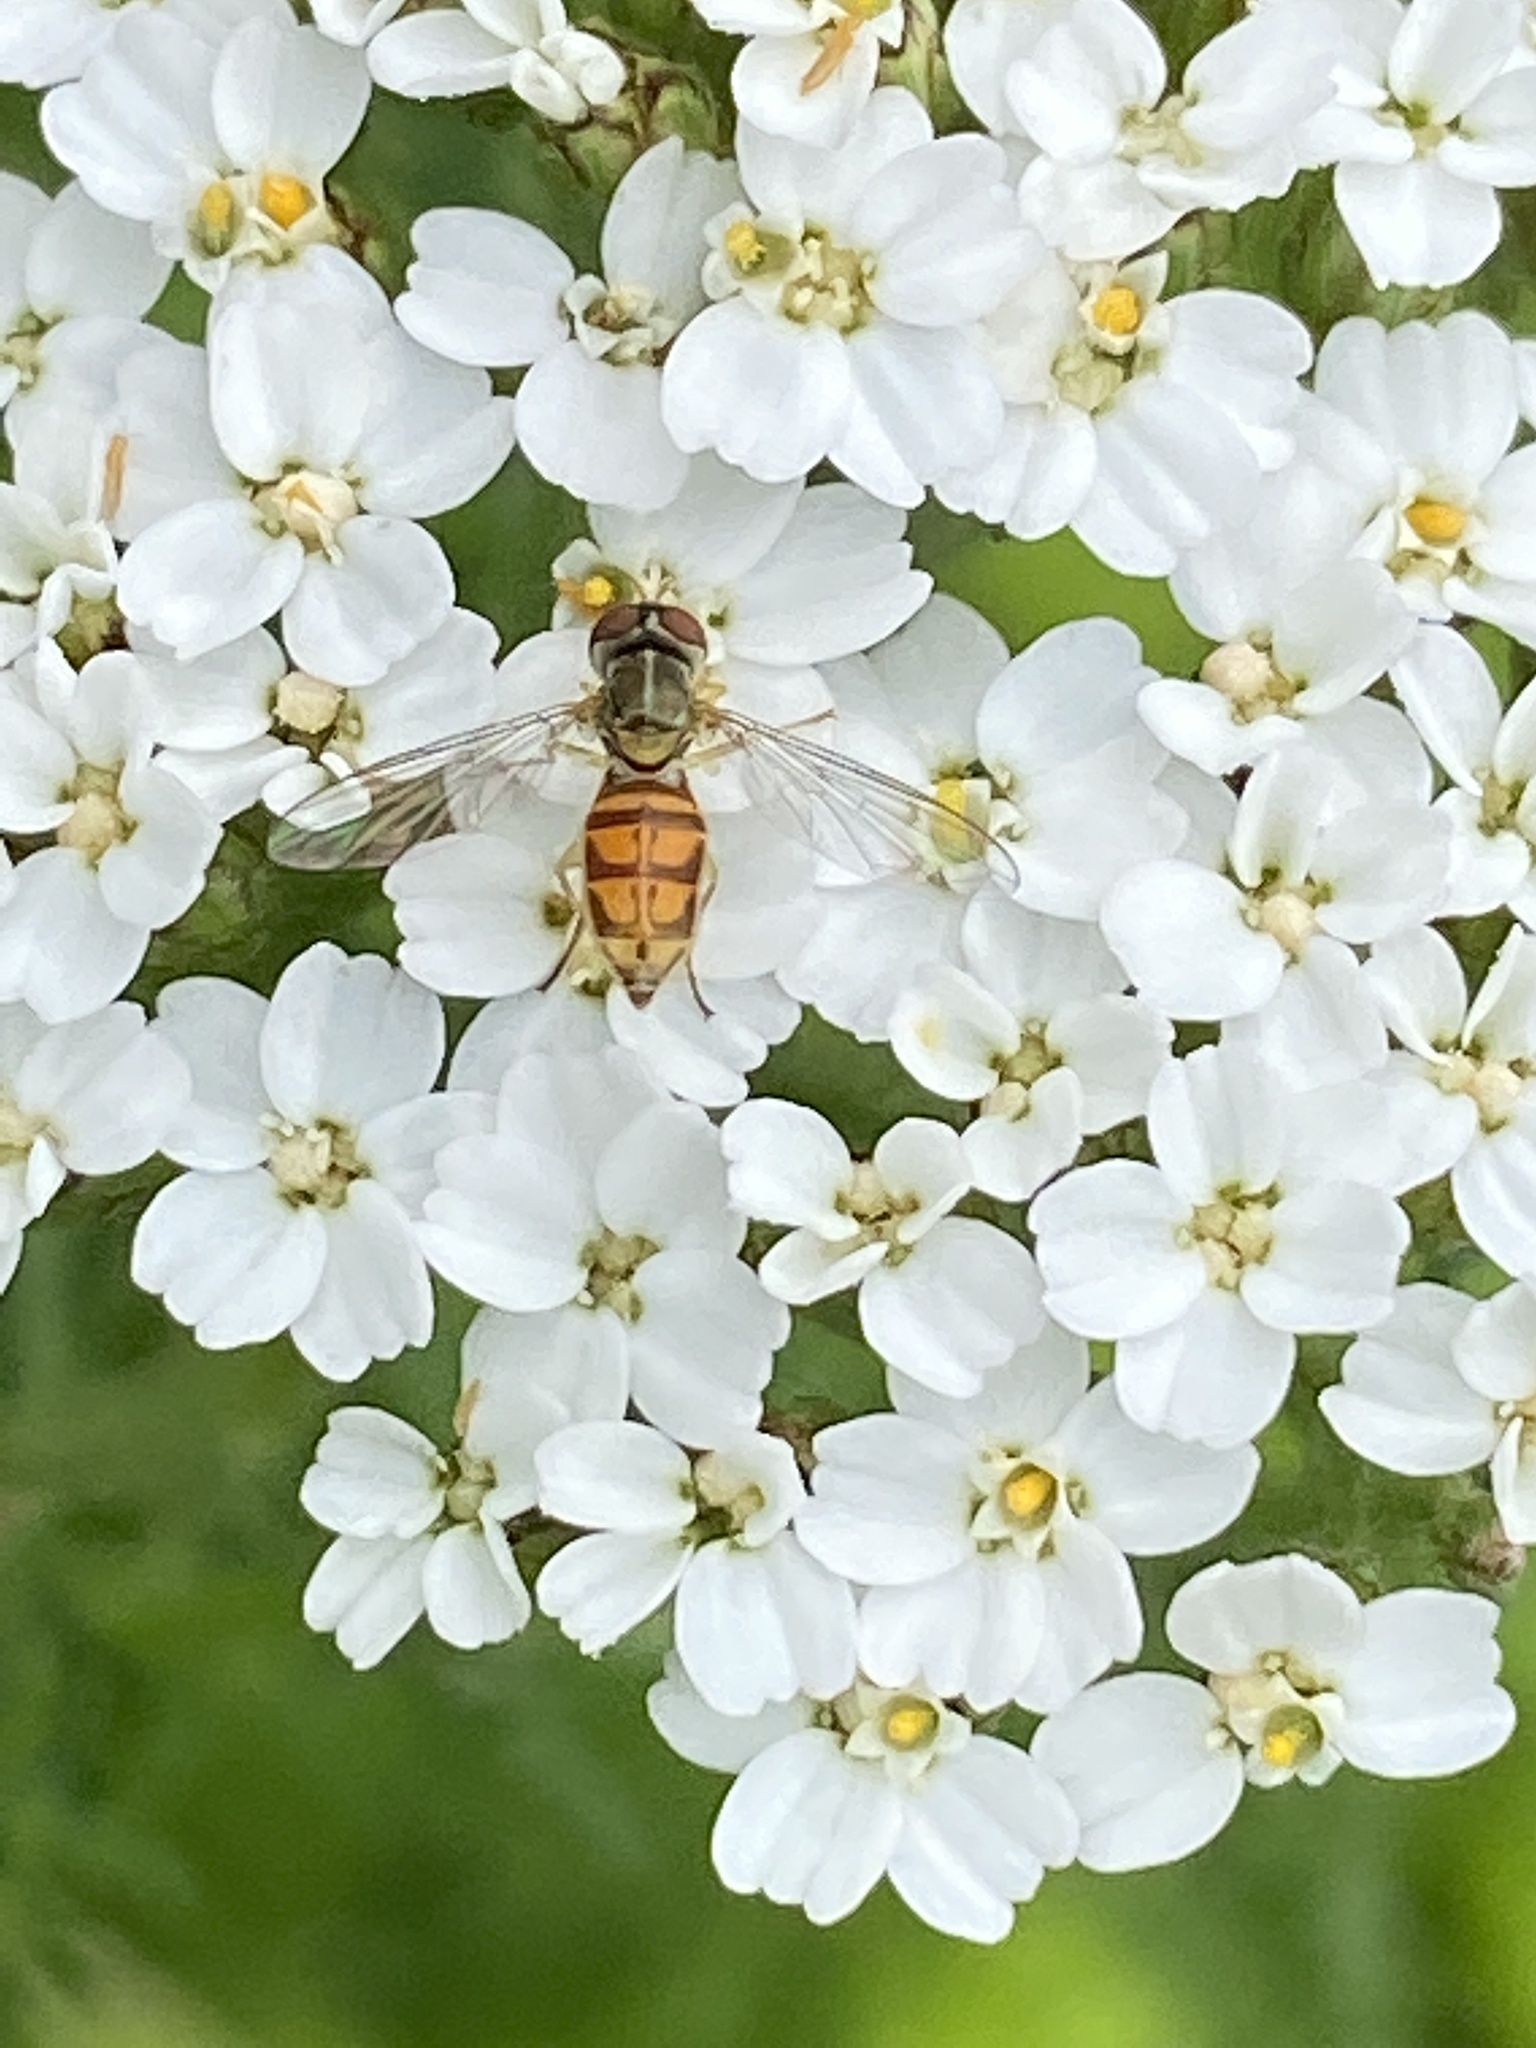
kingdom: Animalia
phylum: Arthropoda
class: Insecta
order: Diptera
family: Syrphidae
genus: Toxomerus
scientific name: Toxomerus marginatus
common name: Syrphid fly
